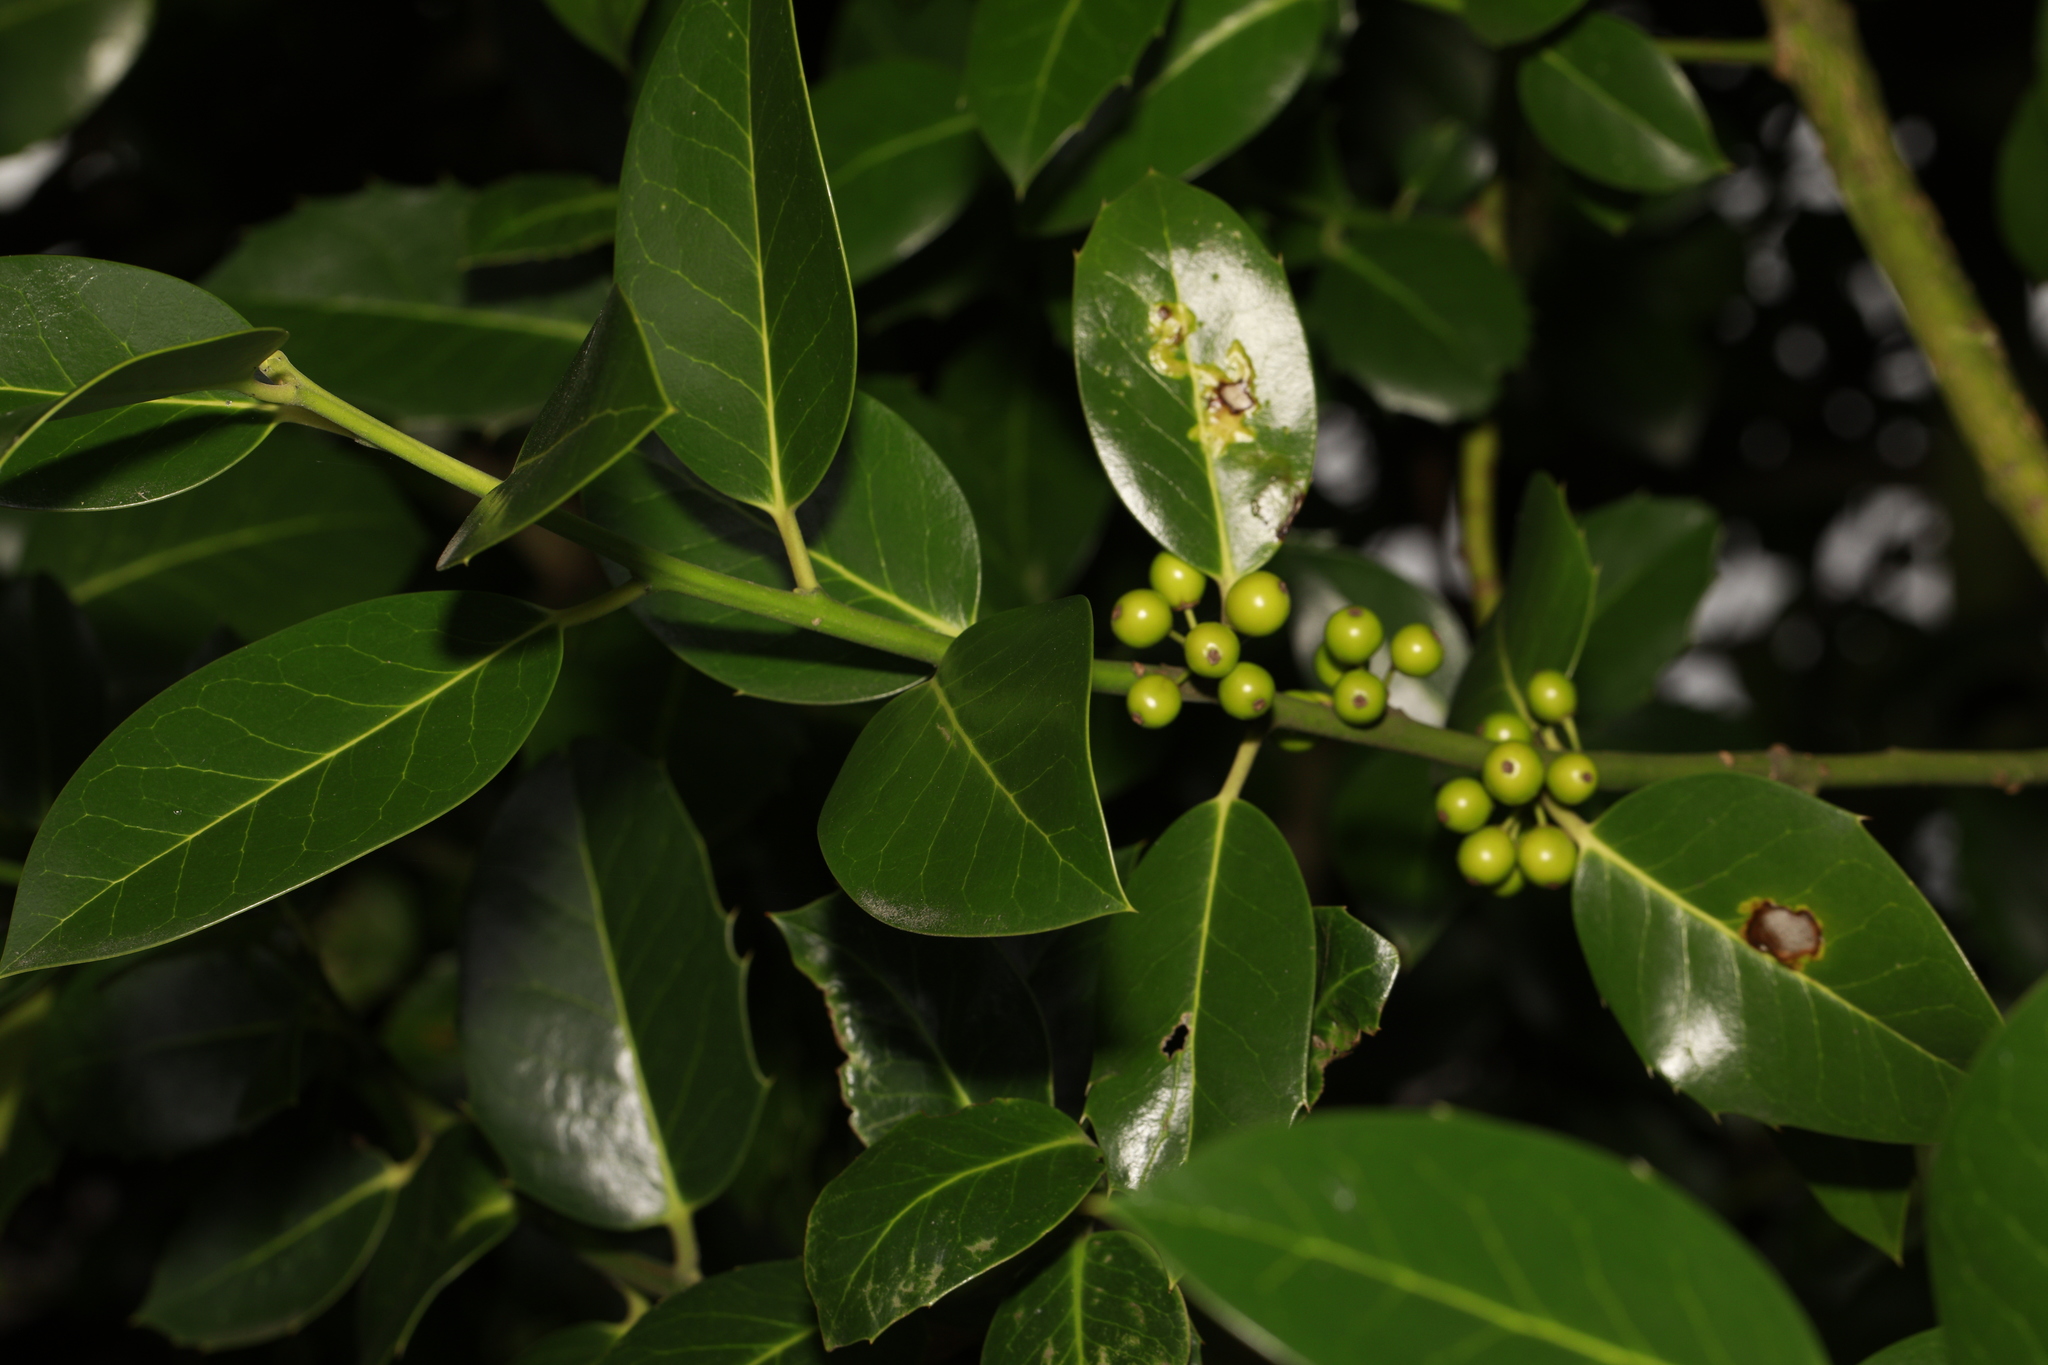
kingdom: Plantae
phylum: Tracheophyta
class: Magnoliopsida
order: Aquifoliales
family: Aquifoliaceae
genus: Ilex
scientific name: Ilex altaclerensis
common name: Highclere holly
